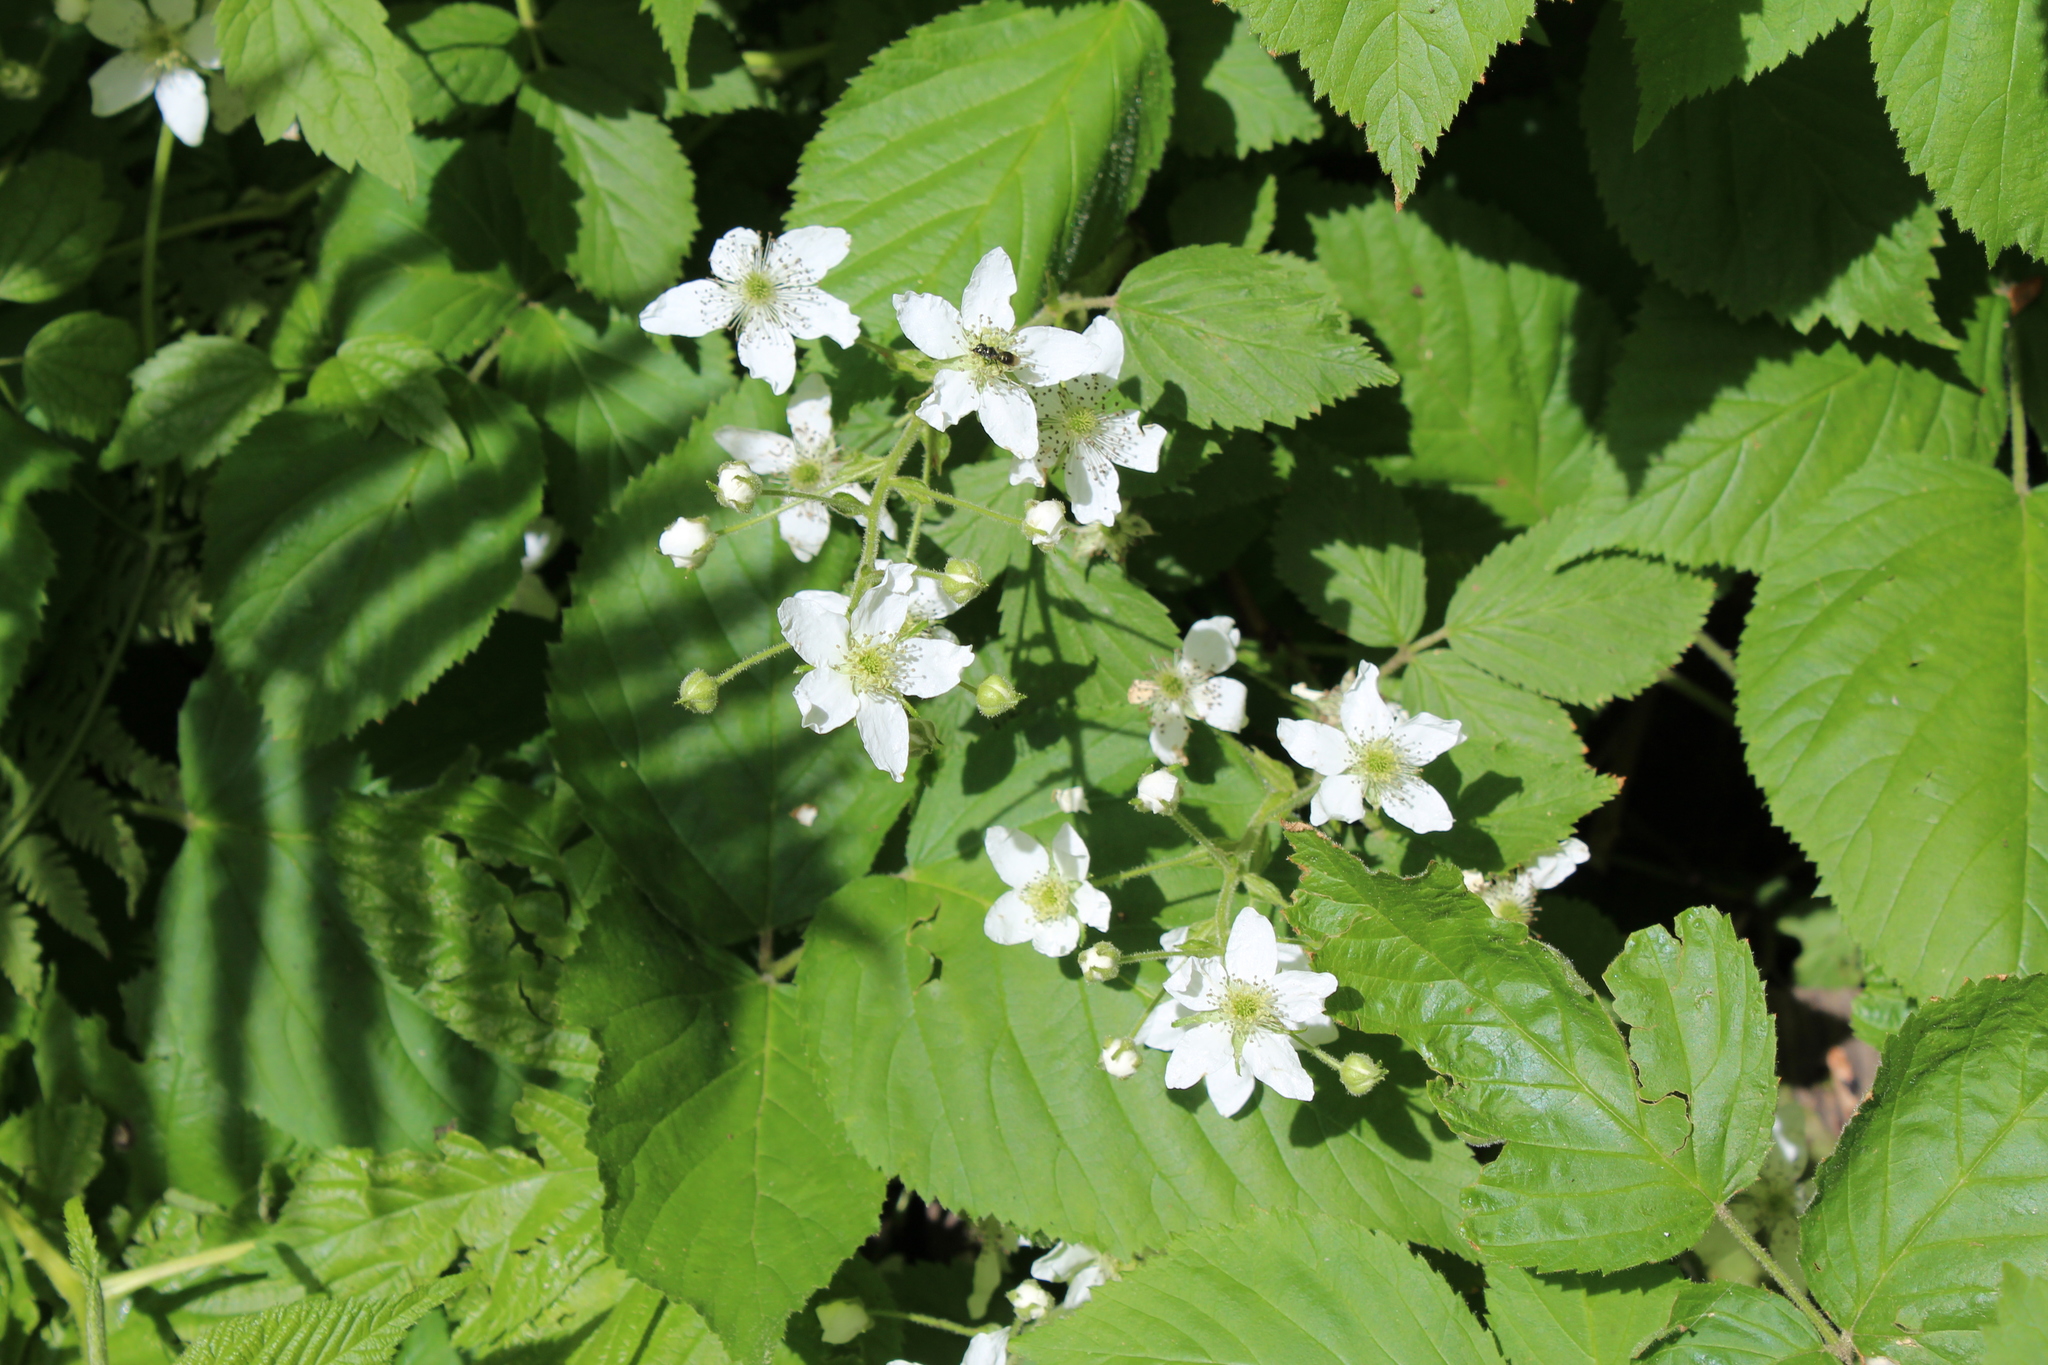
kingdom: Plantae
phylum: Tracheophyta
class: Magnoliopsida
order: Rosales
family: Rosaceae
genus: Rubus
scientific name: Rubus allegheniensis
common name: Allegheny blackberry
